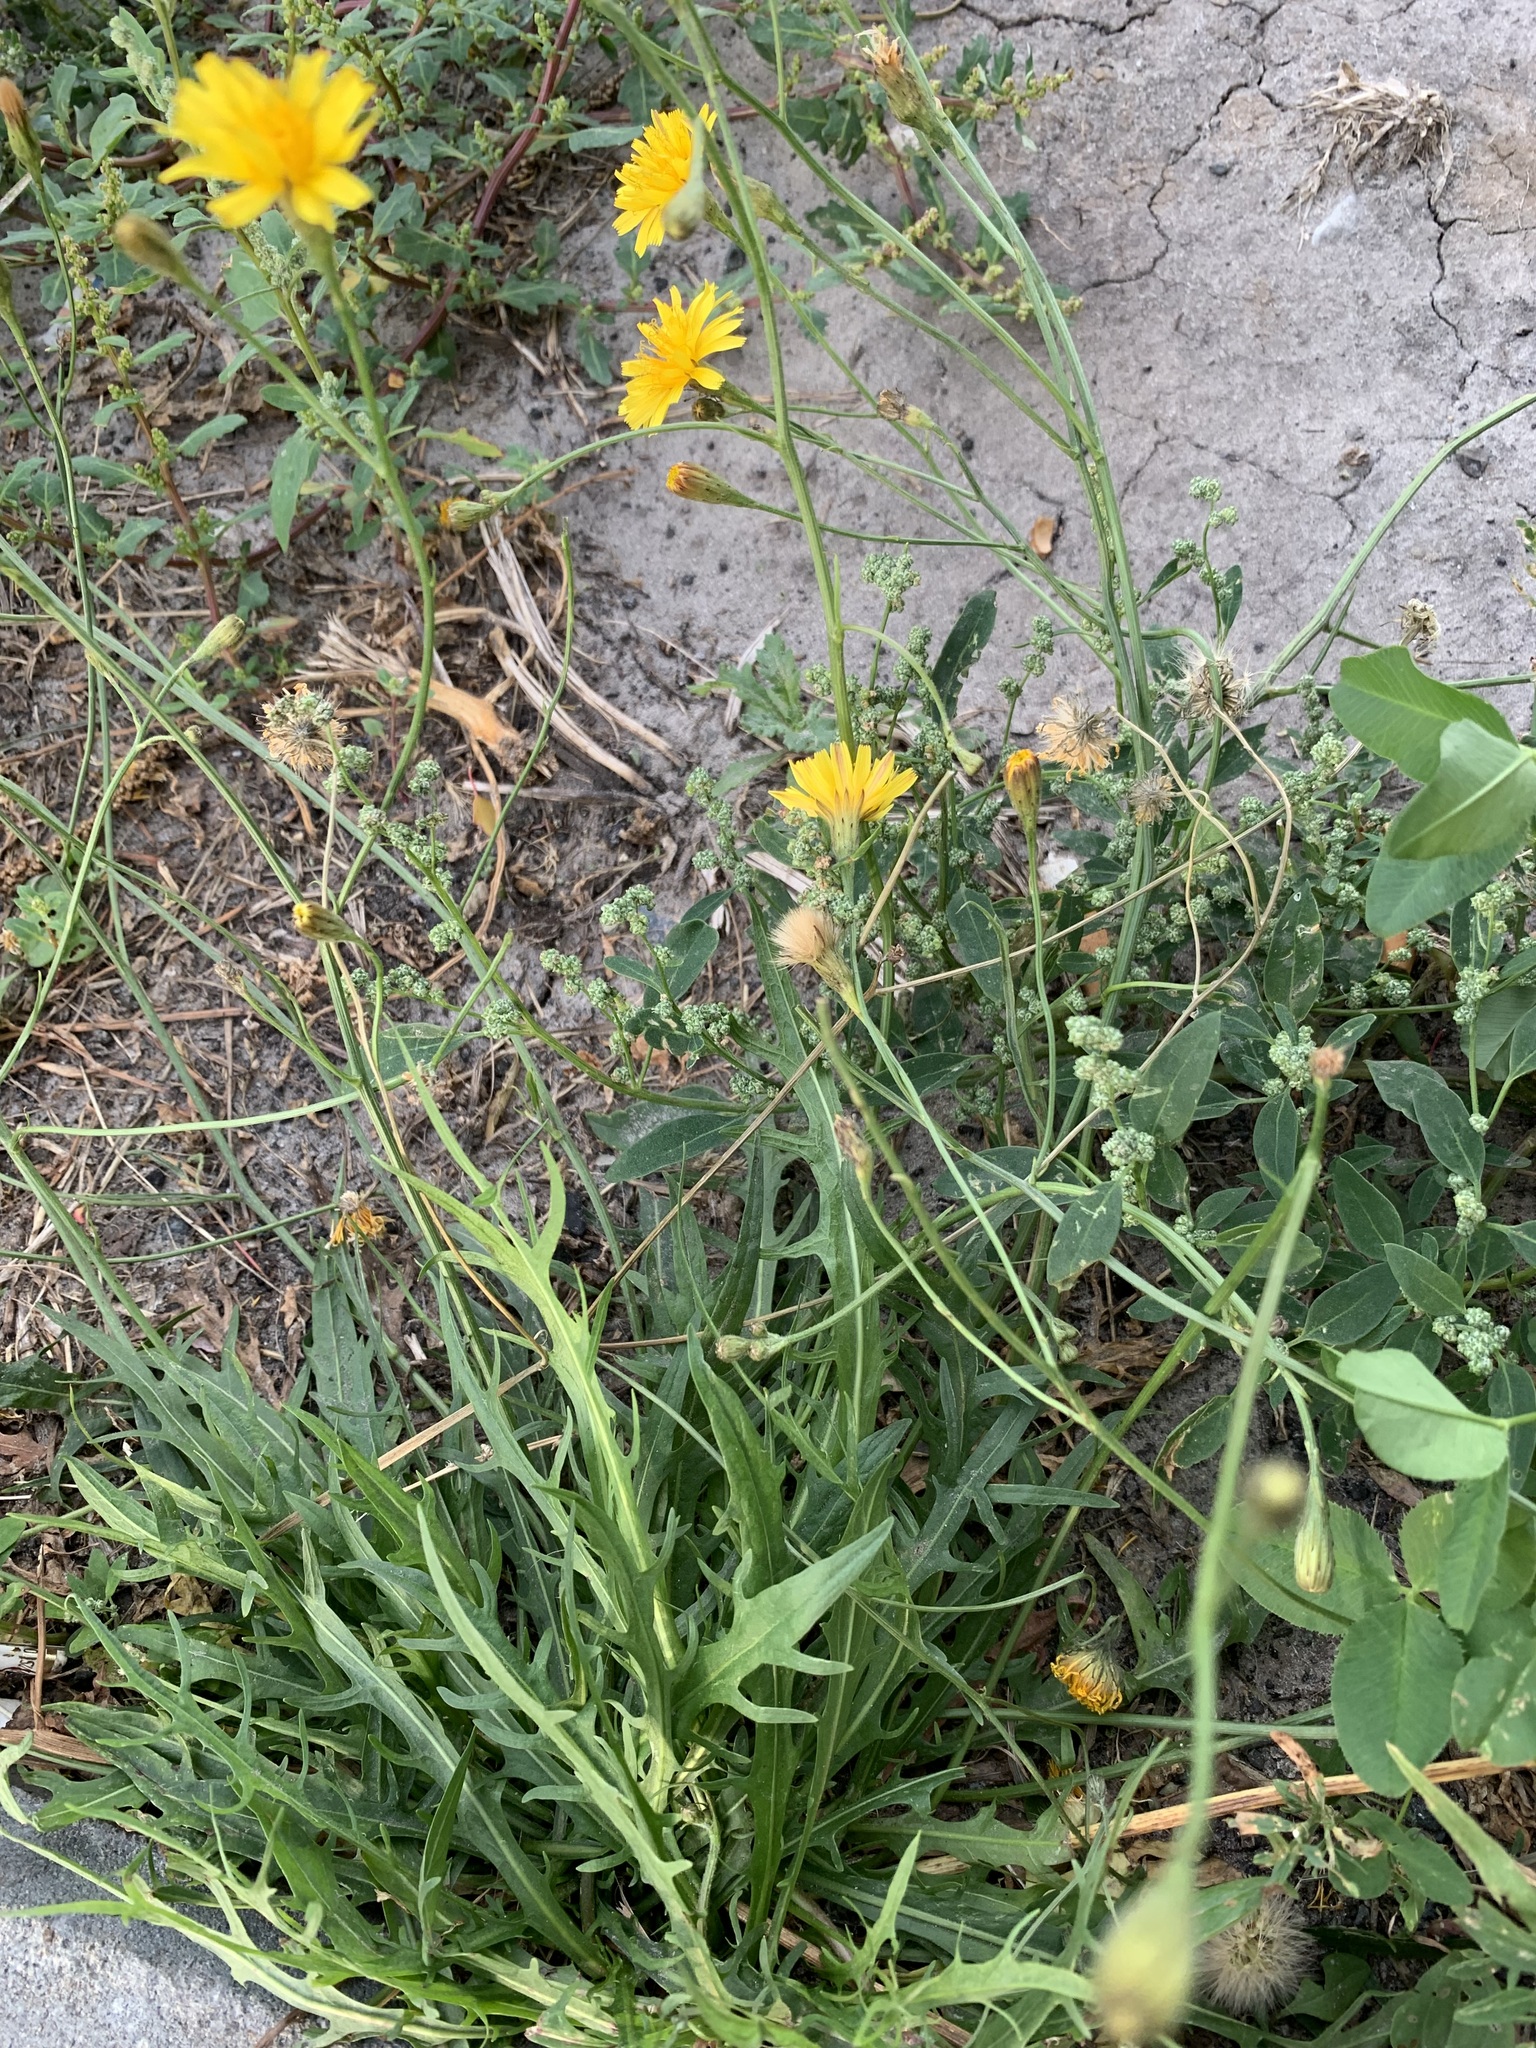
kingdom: Plantae
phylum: Tracheophyta
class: Magnoliopsida
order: Asterales
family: Asteraceae
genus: Scorzoneroides
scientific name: Scorzoneroides autumnalis
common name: Autumn hawkbit
